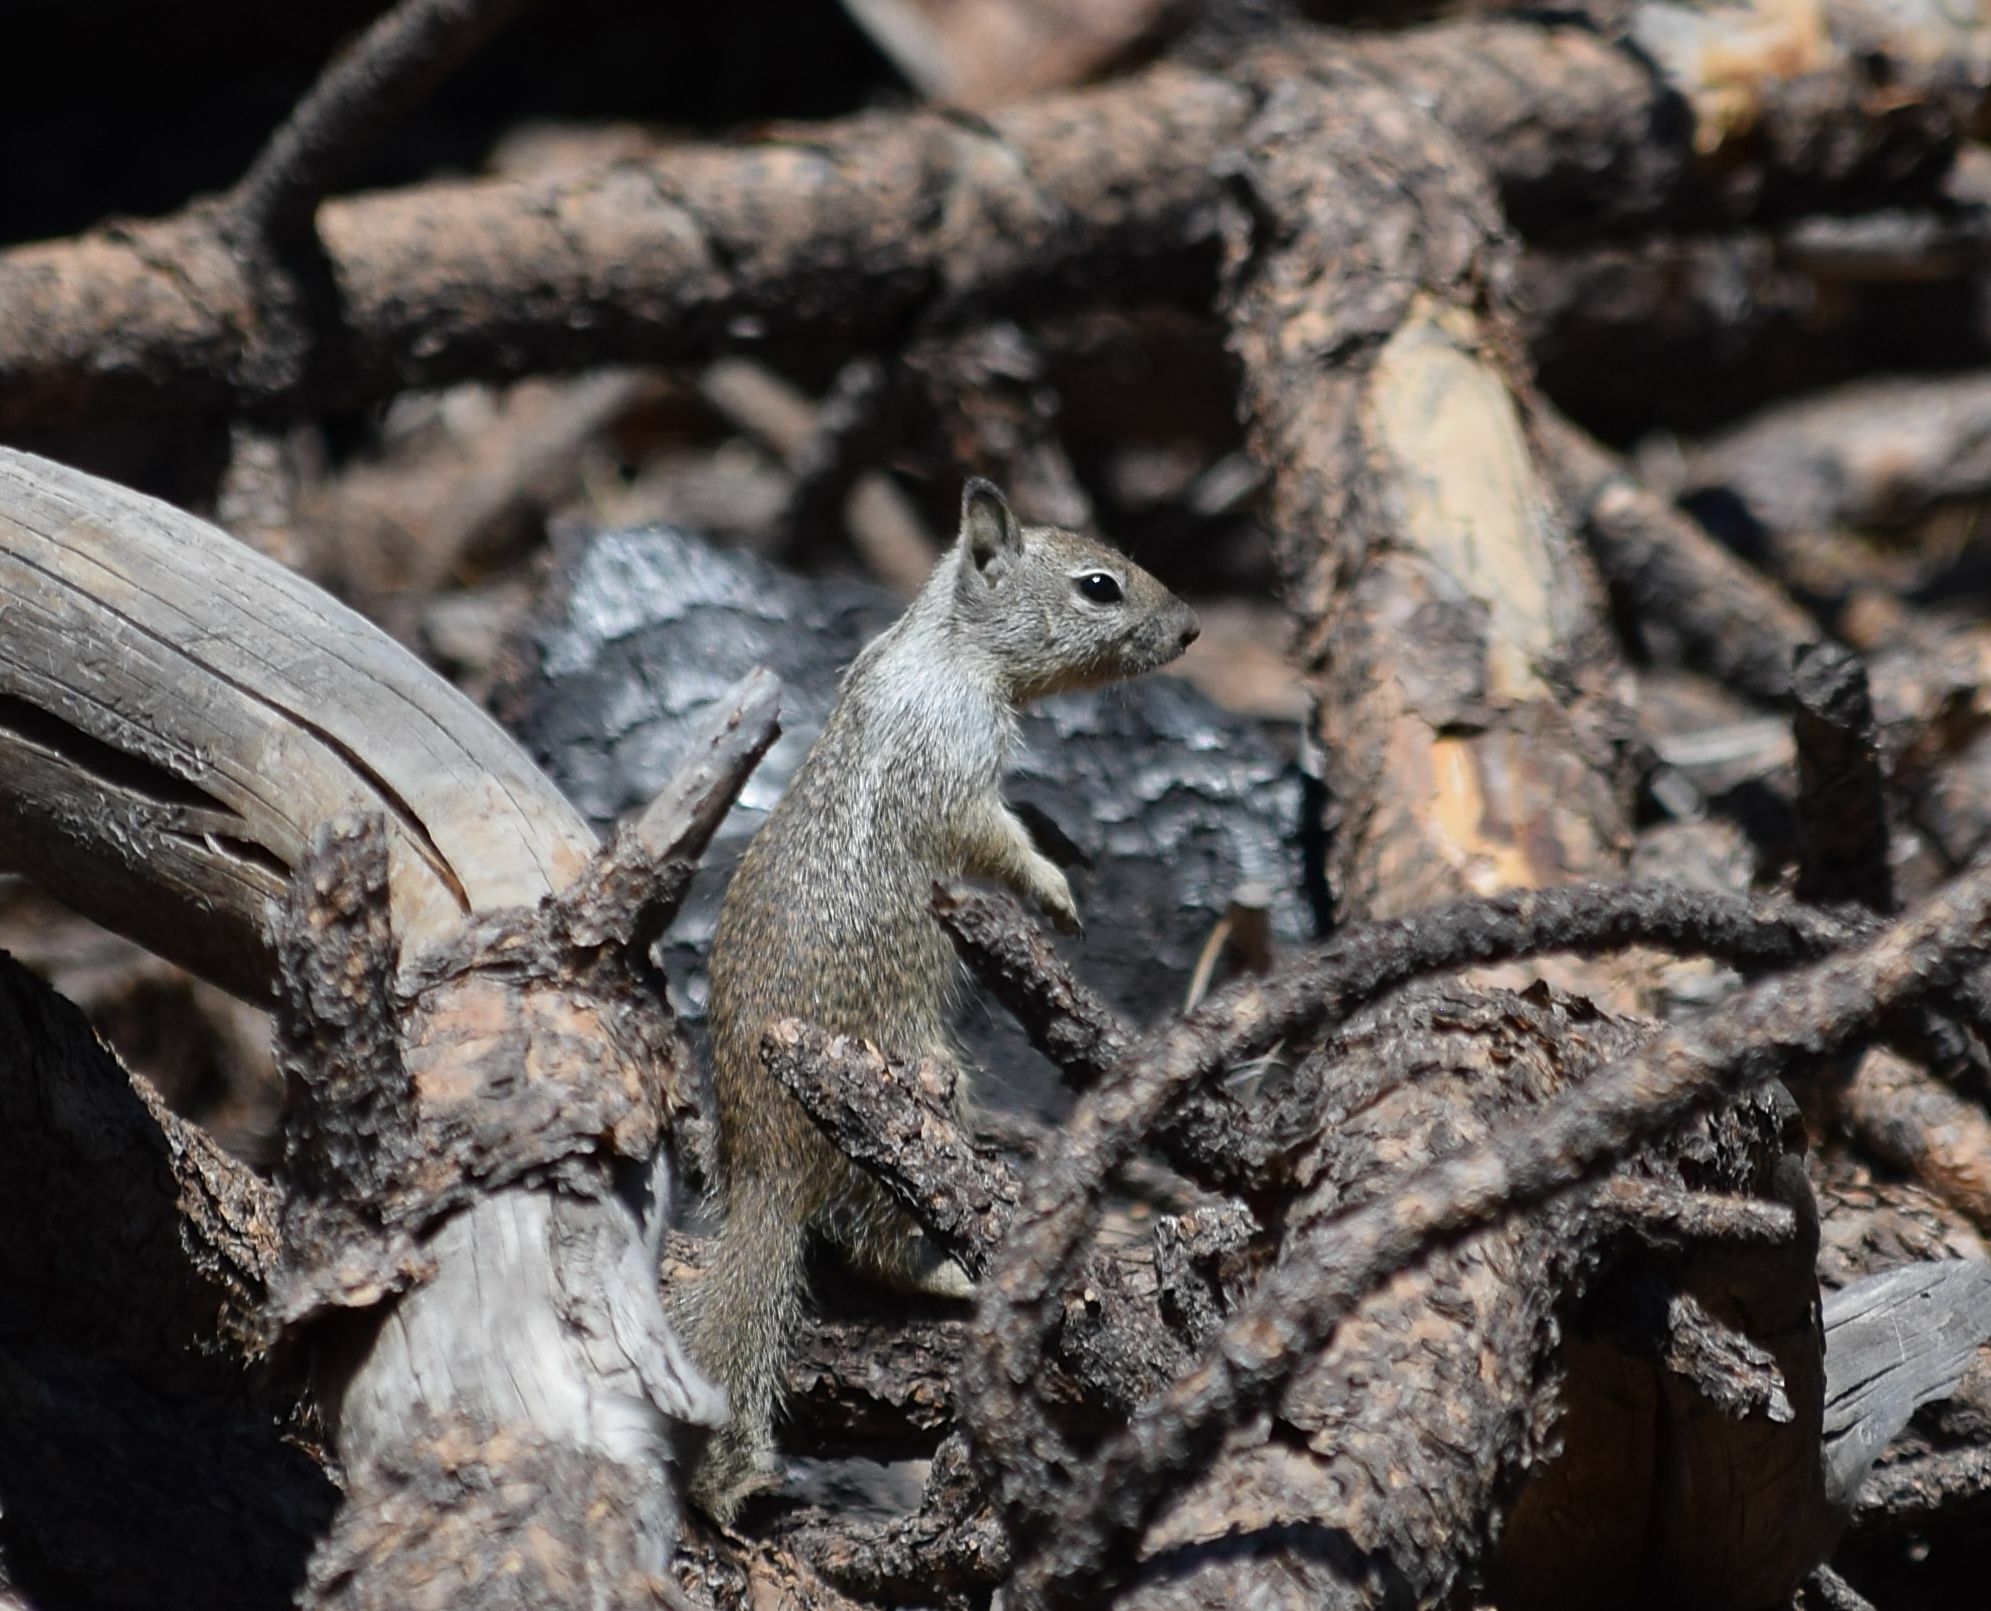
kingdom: Animalia
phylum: Chordata
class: Mammalia
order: Rodentia
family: Sciuridae
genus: Otospermophilus
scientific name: Otospermophilus beecheyi
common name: California ground squirrel
